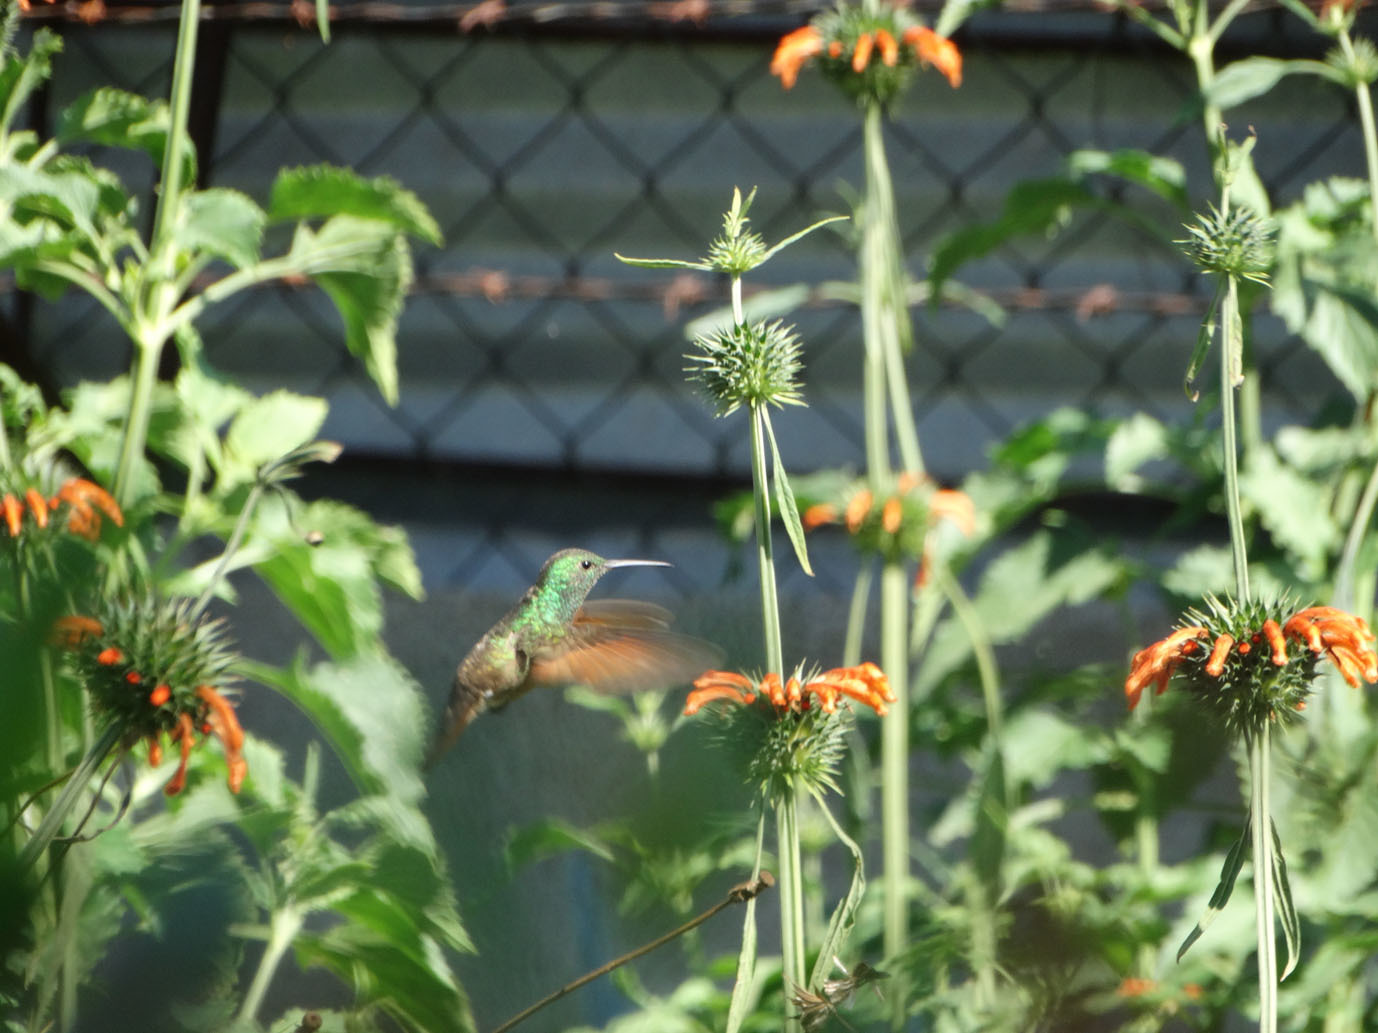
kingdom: Animalia
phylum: Chordata
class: Aves
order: Apodiformes
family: Trochilidae
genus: Saucerottia
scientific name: Saucerottia beryllina
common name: Berylline hummingbird
